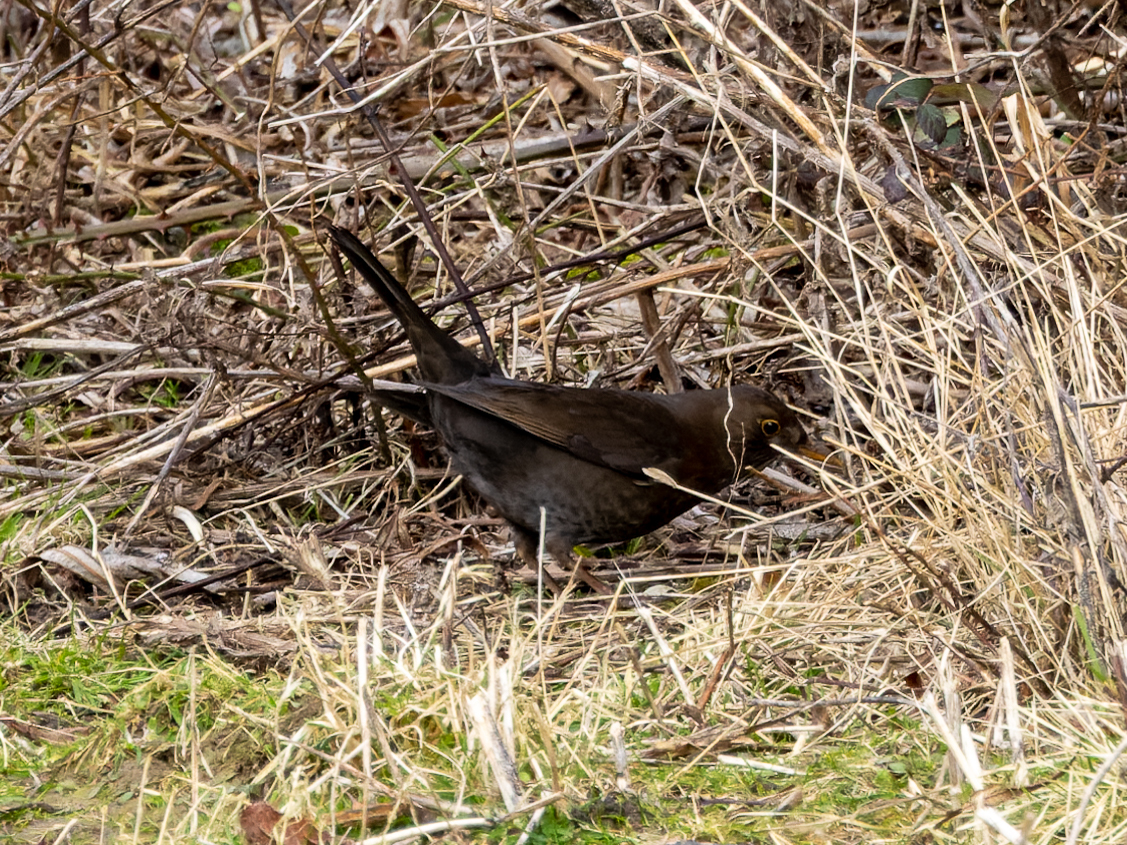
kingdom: Animalia
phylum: Chordata
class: Aves
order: Passeriformes
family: Turdidae
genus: Turdus
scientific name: Turdus merula
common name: Common blackbird
